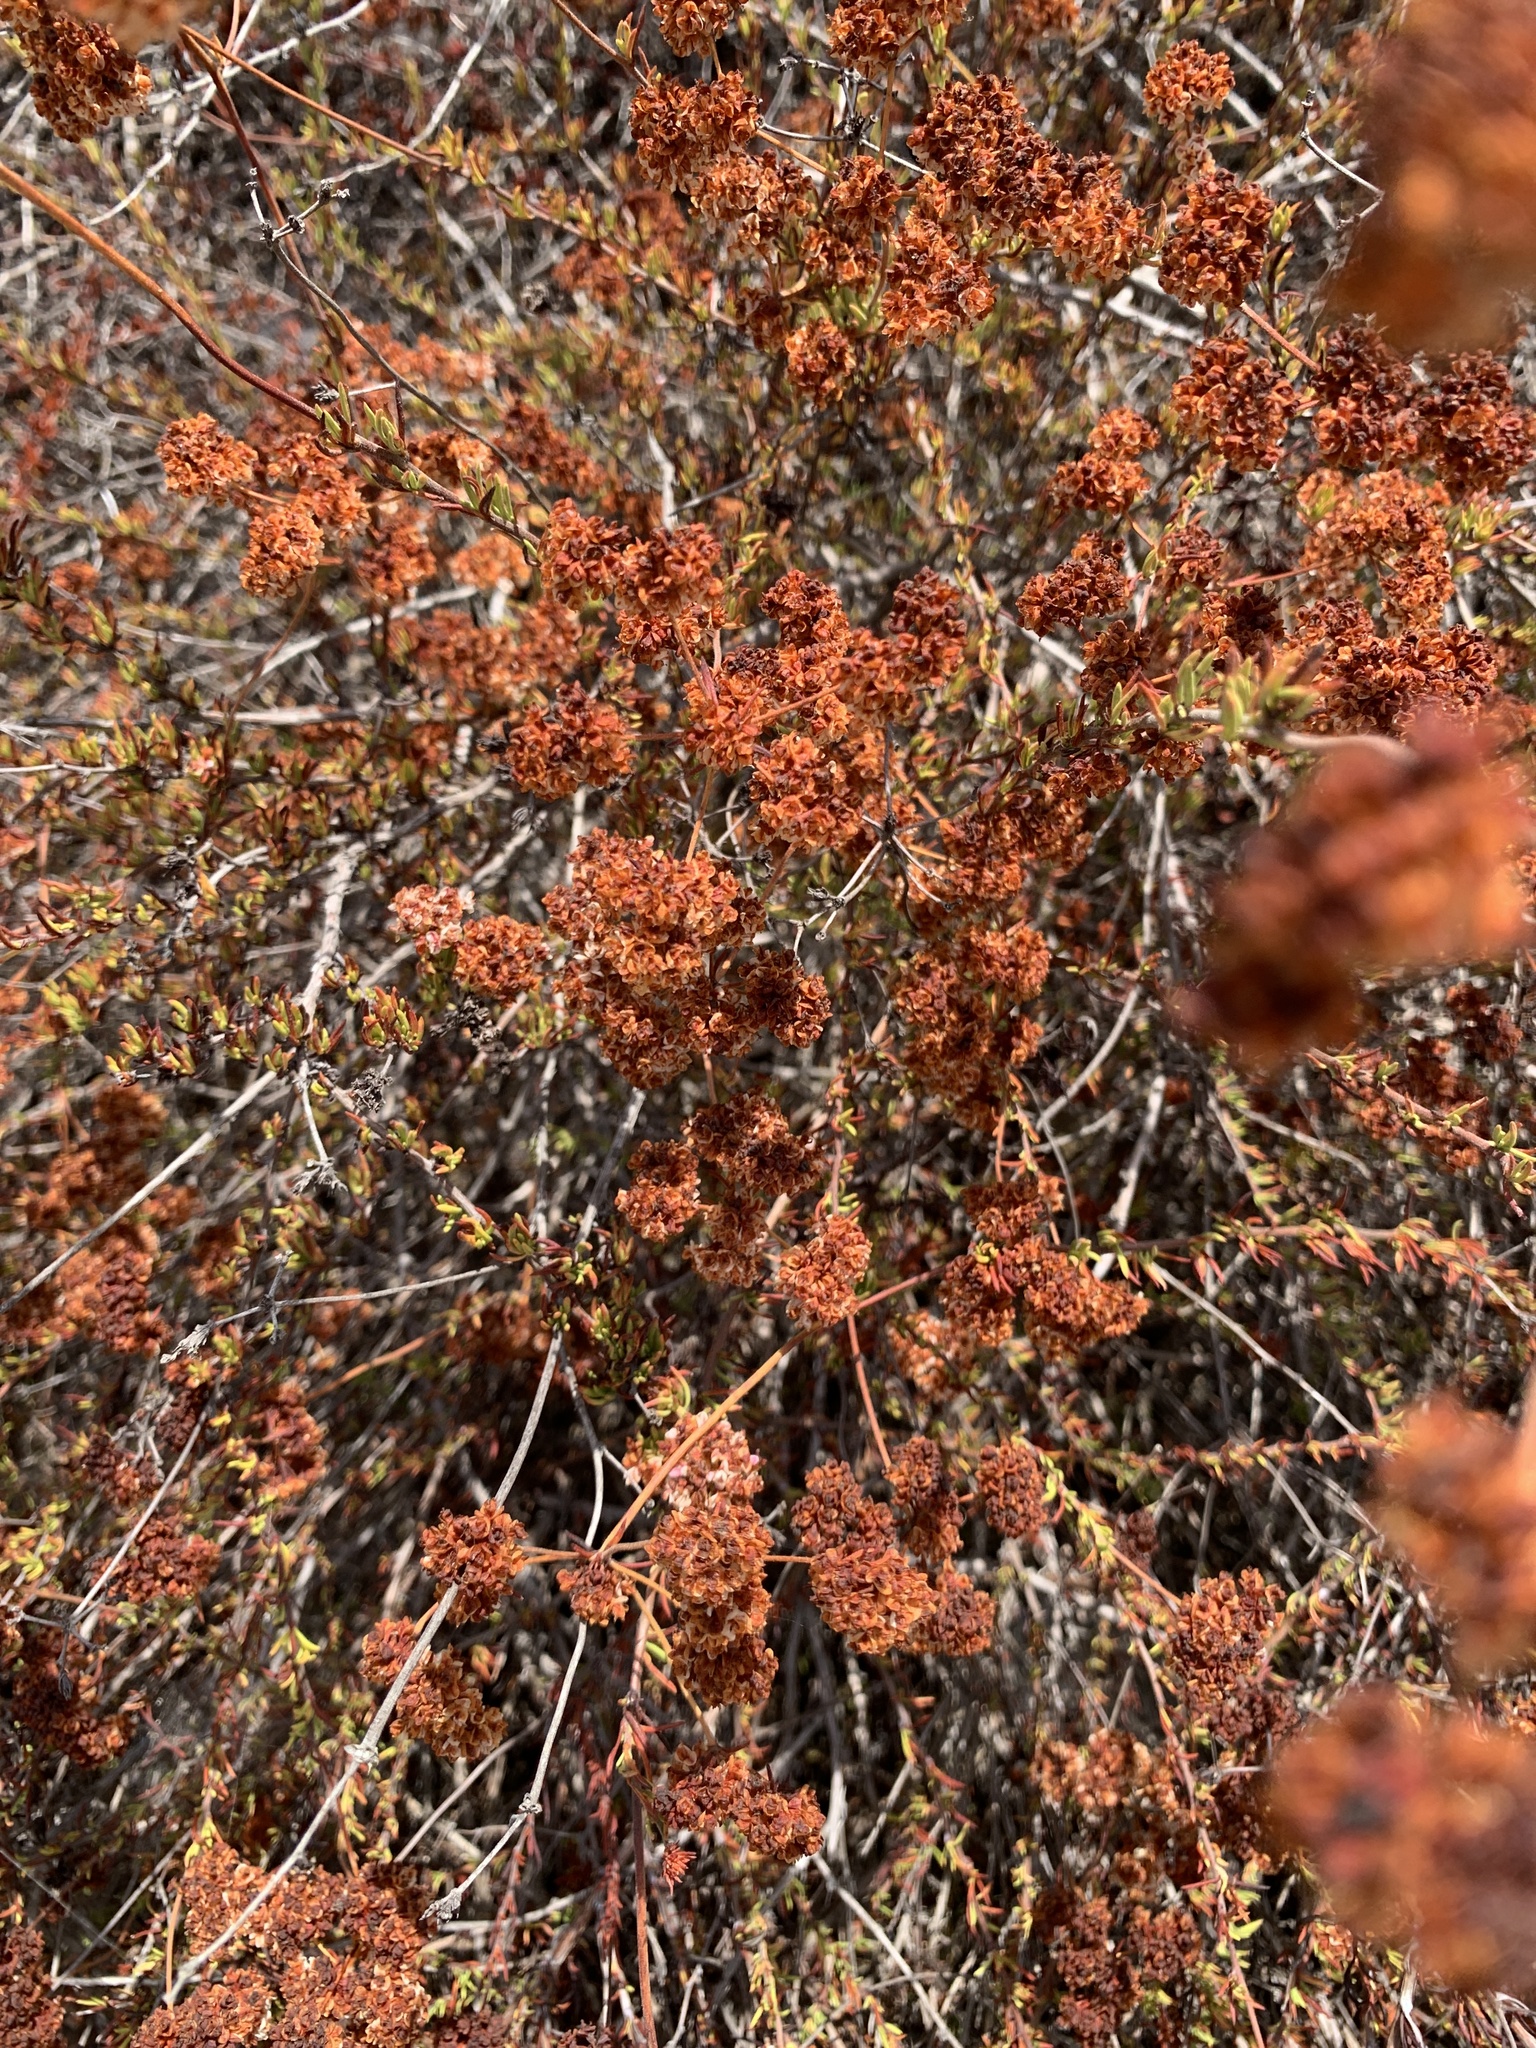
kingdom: Plantae
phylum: Tracheophyta
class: Magnoliopsida
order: Caryophyllales
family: Polygonaceae
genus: Eriogonum
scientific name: Eriogonum fasciculatum
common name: California wild buckwheat
